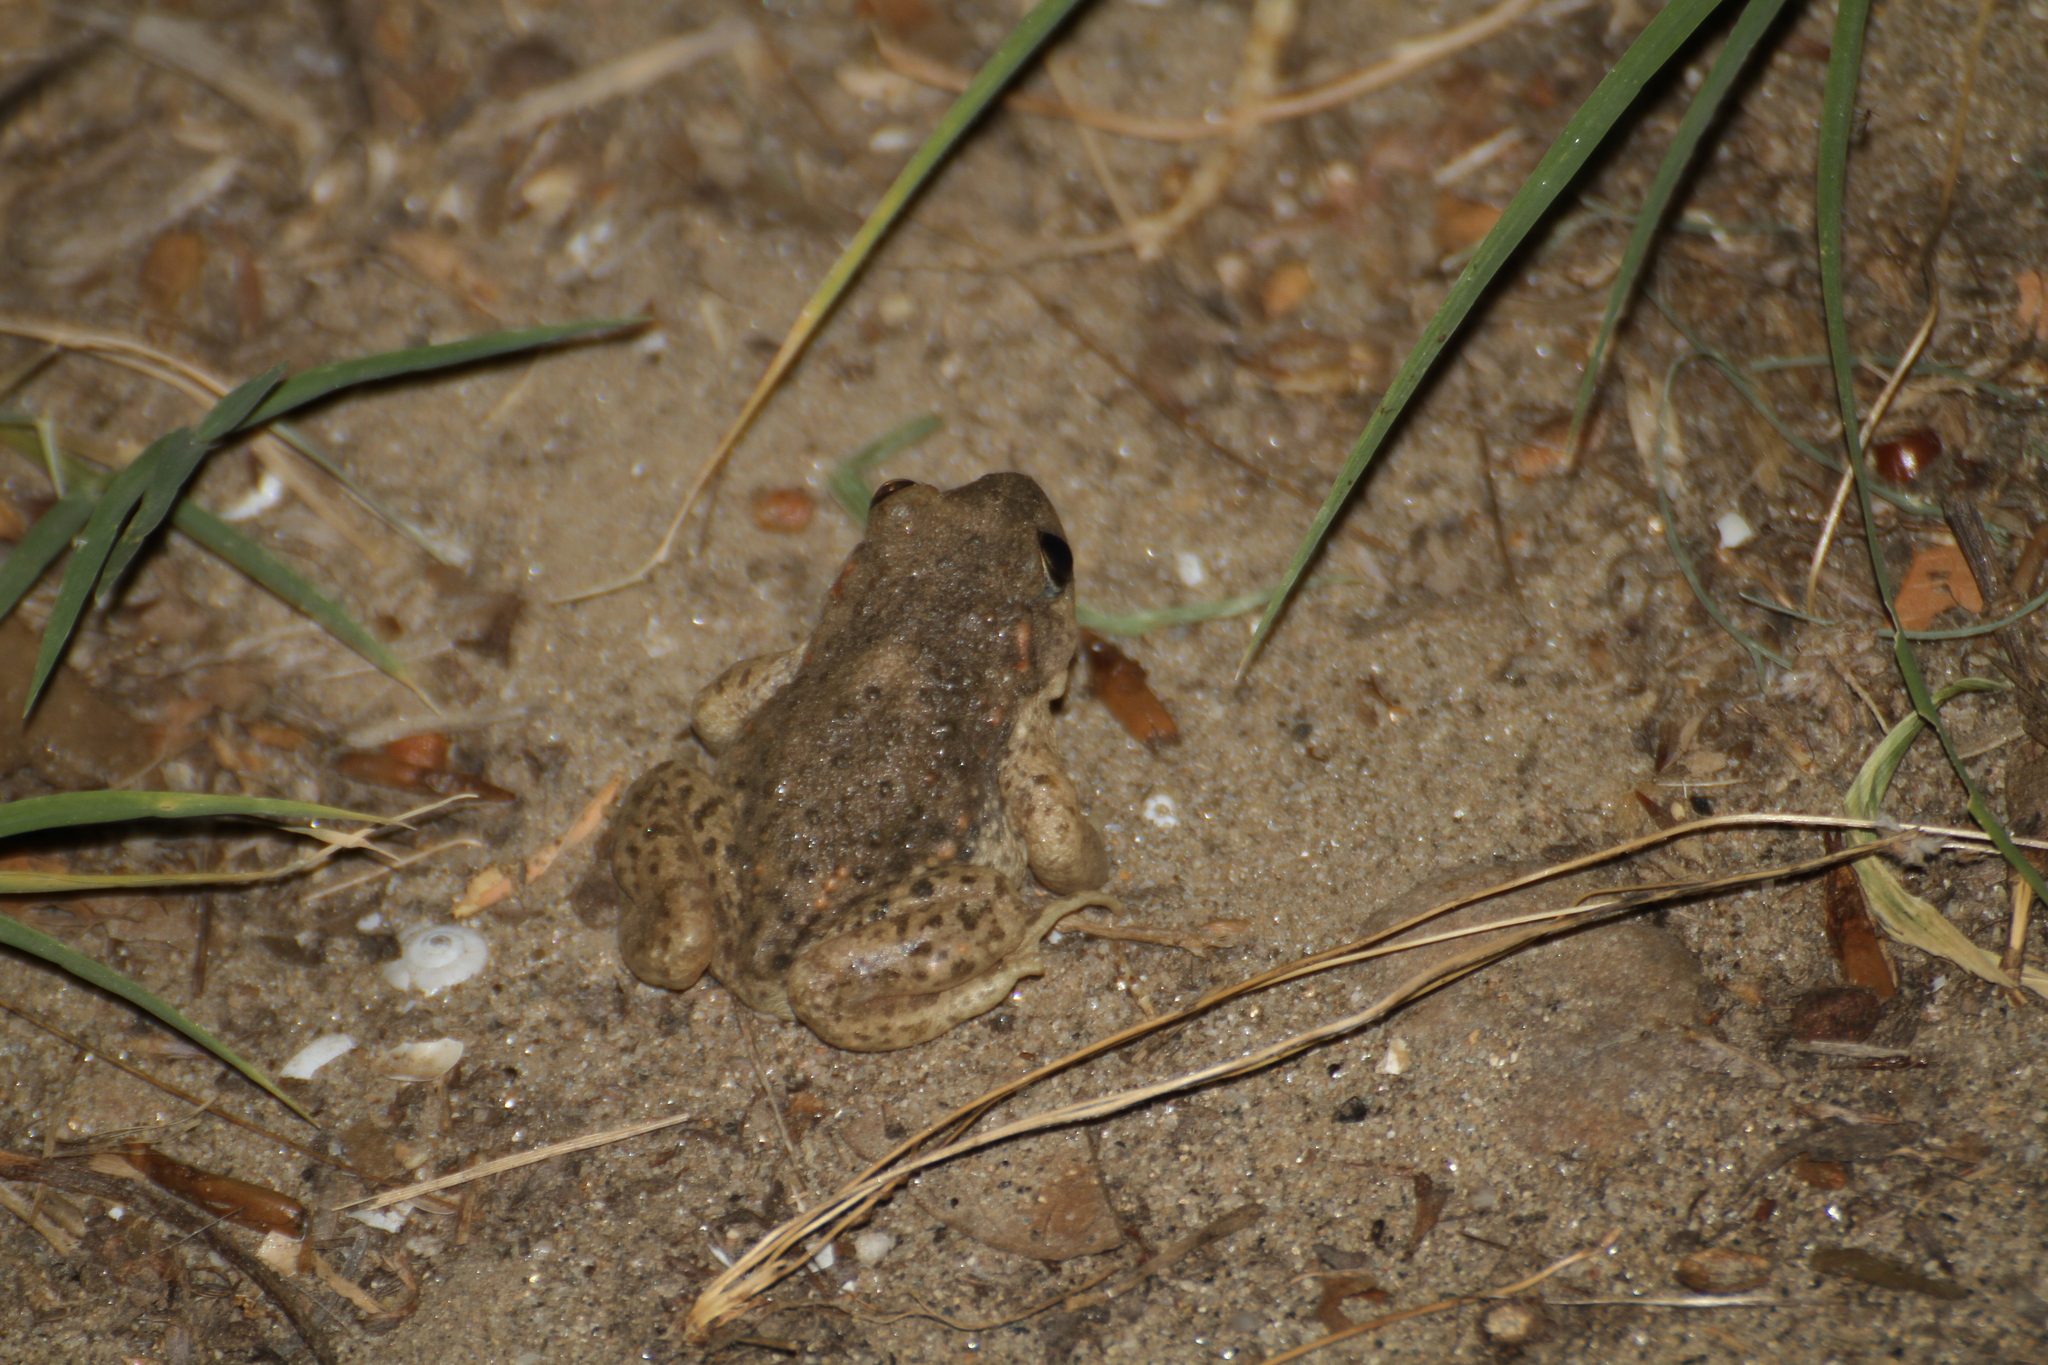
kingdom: Animalia
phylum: Chordata
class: Amphibia
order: Anura
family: Alytidae
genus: Alytes
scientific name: Alytes obstetricans
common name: Midwife toad
